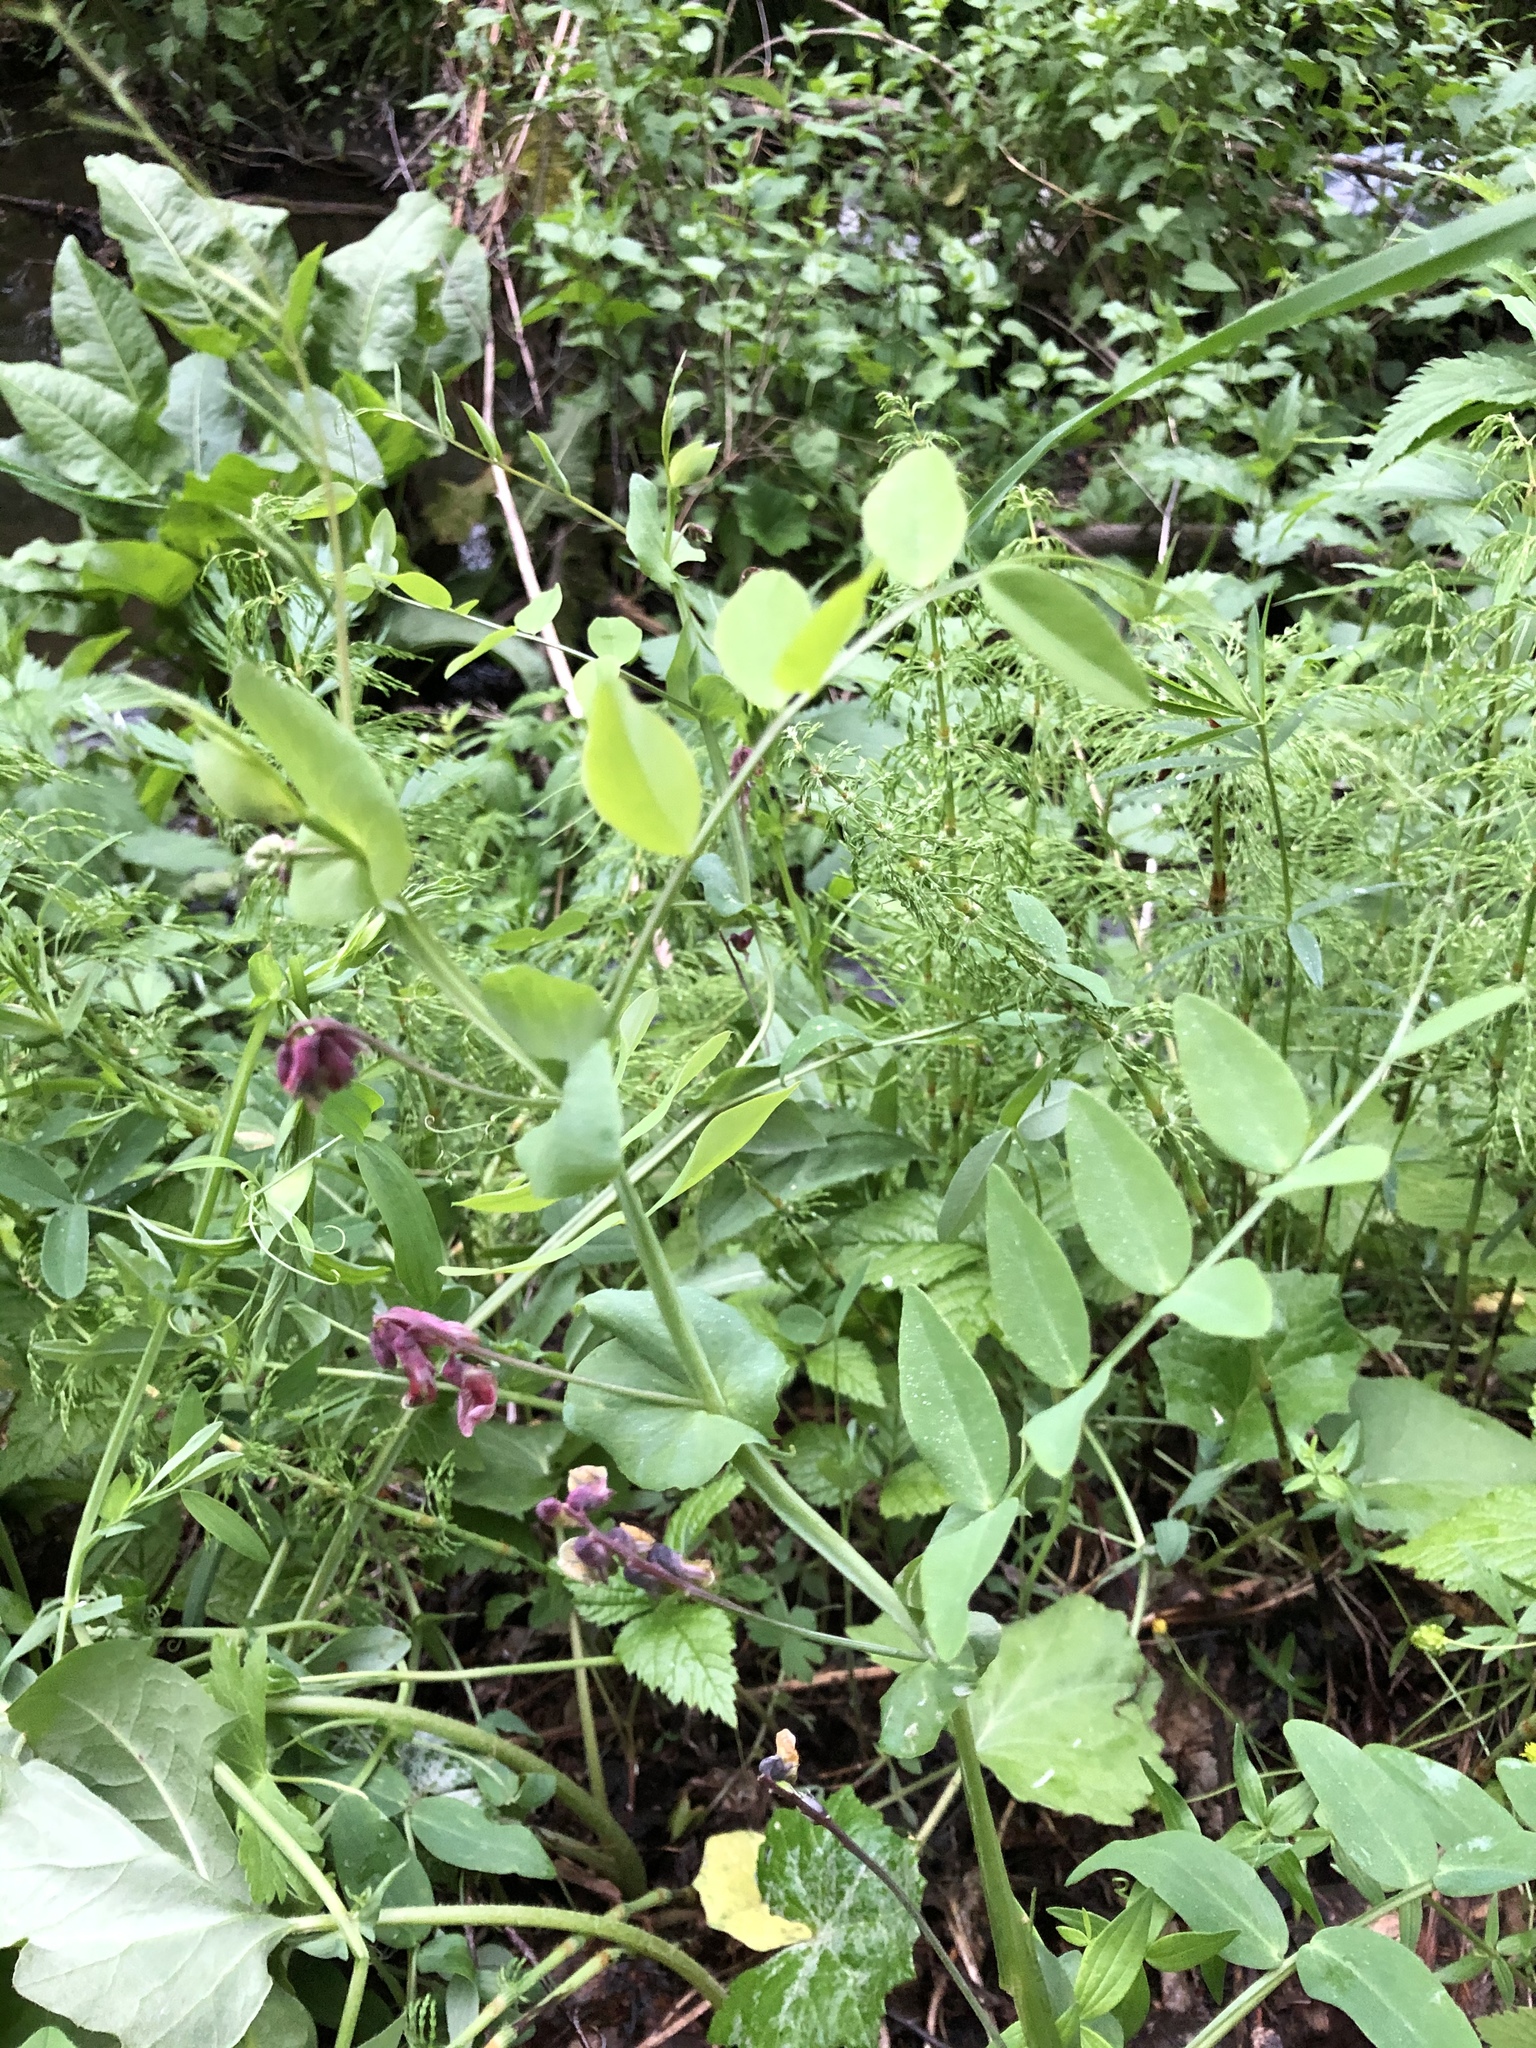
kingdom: Plantae
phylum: Tracheophyta
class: Magnoliopsida
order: Fabales
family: Fabaceae
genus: Lathyrus
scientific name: Lathyrus pisiformis
